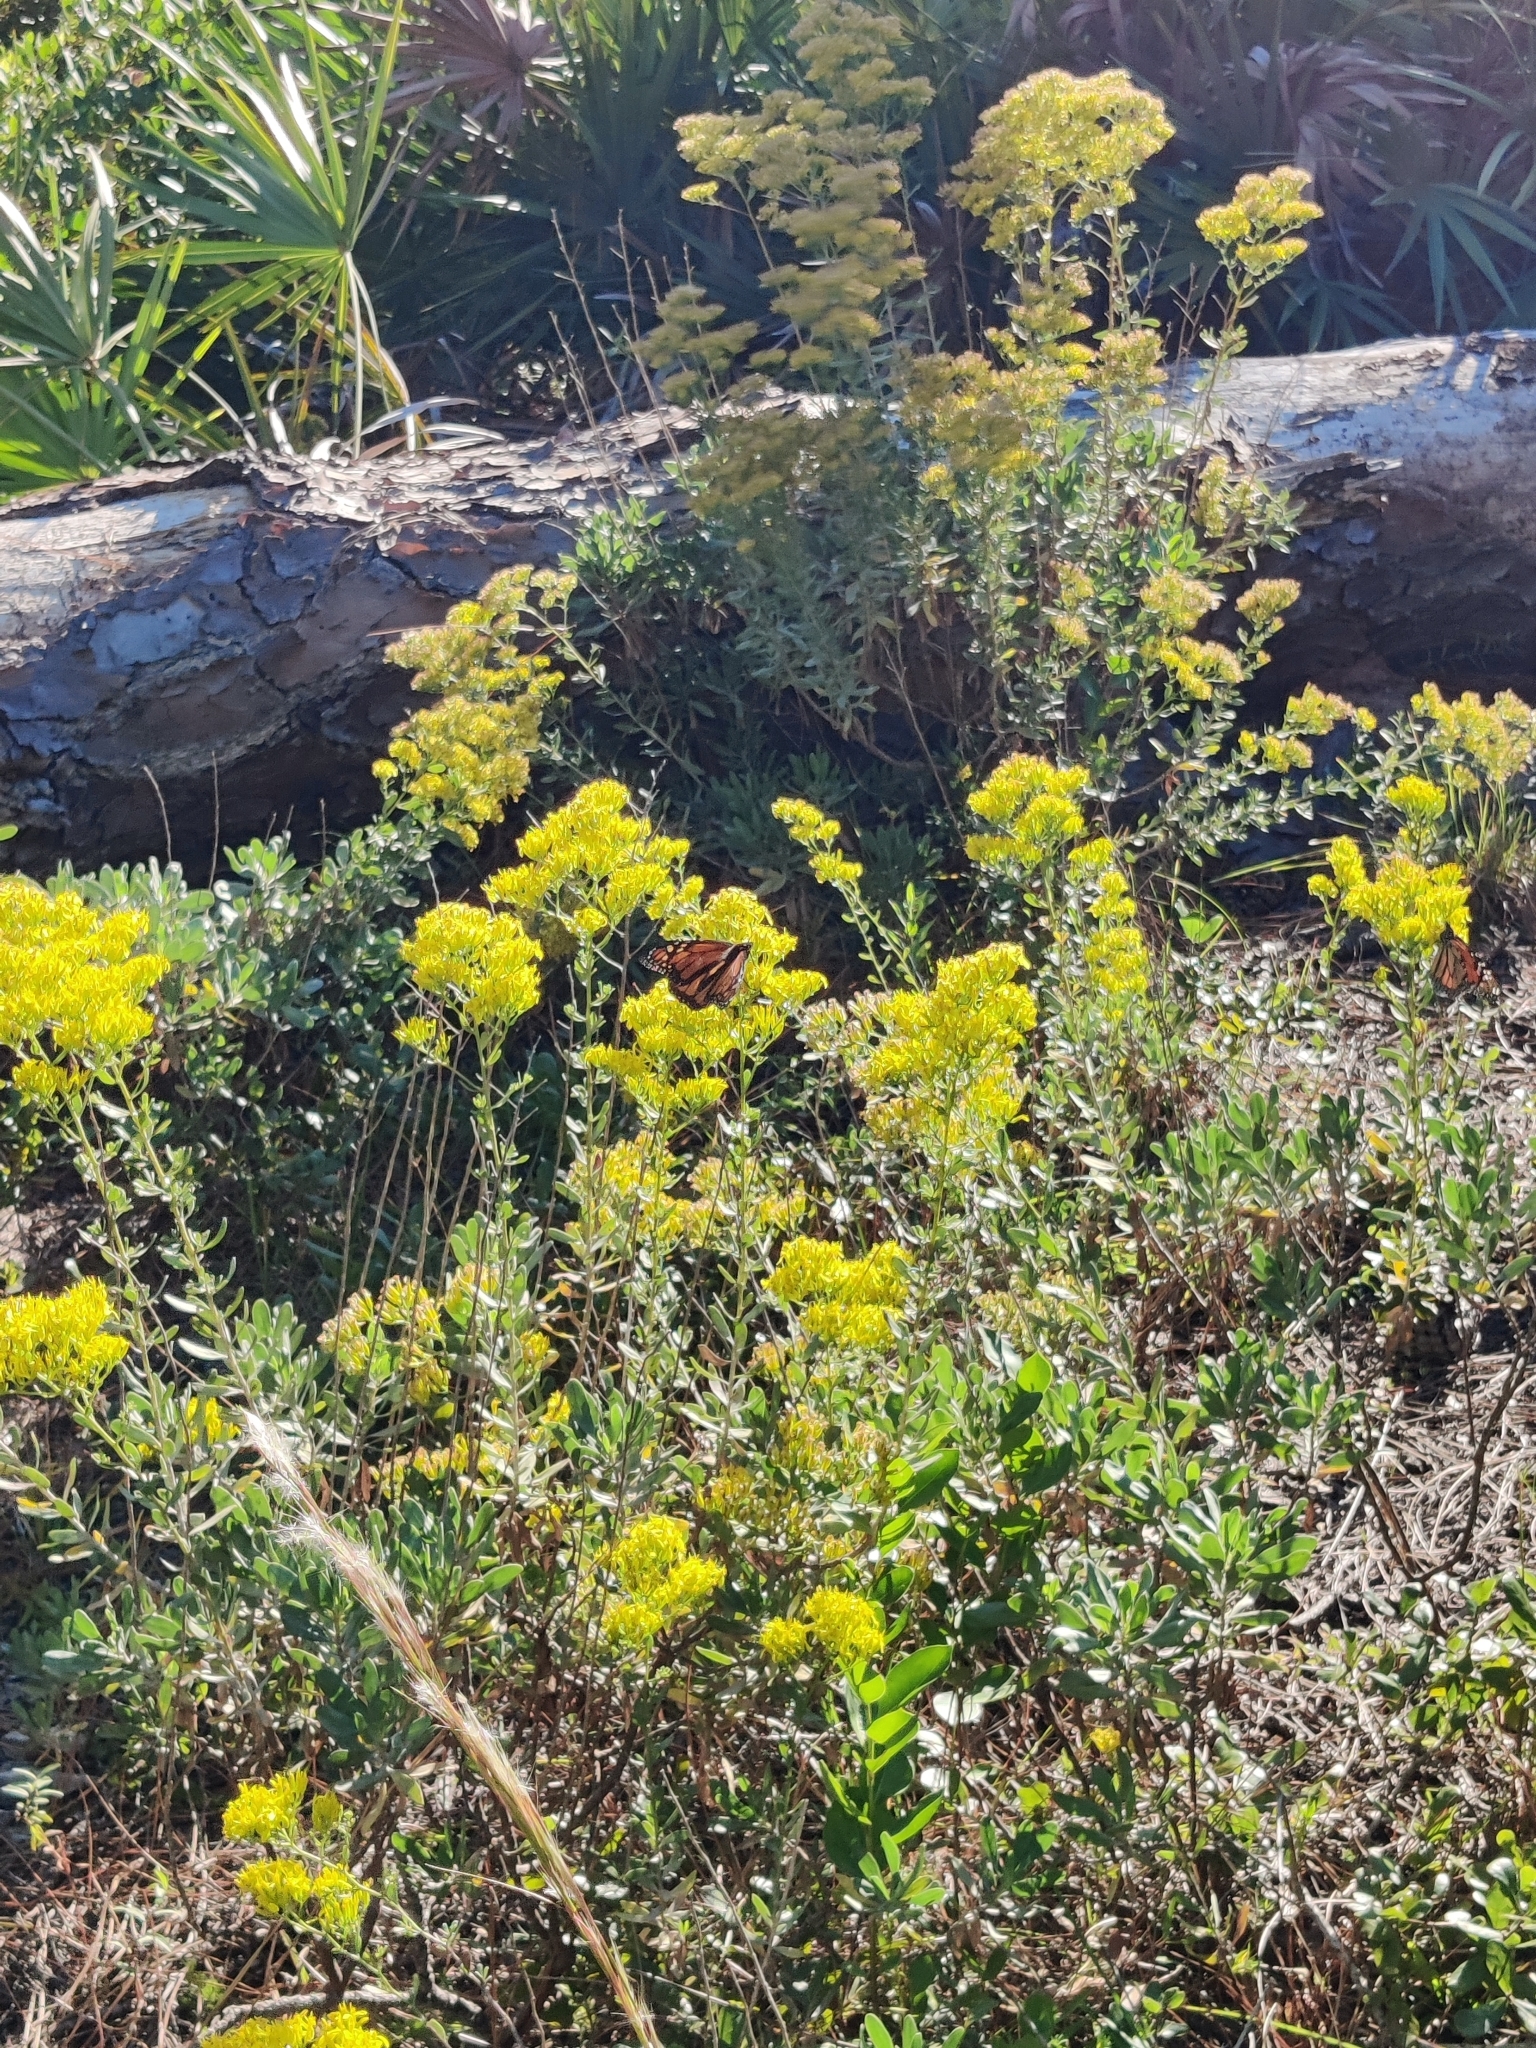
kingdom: Animalia
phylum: Arthropoda
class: Insecta
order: Lepidoptera
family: Nymphalidae
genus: Danaus
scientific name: Danaus plexippus
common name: Monarch
